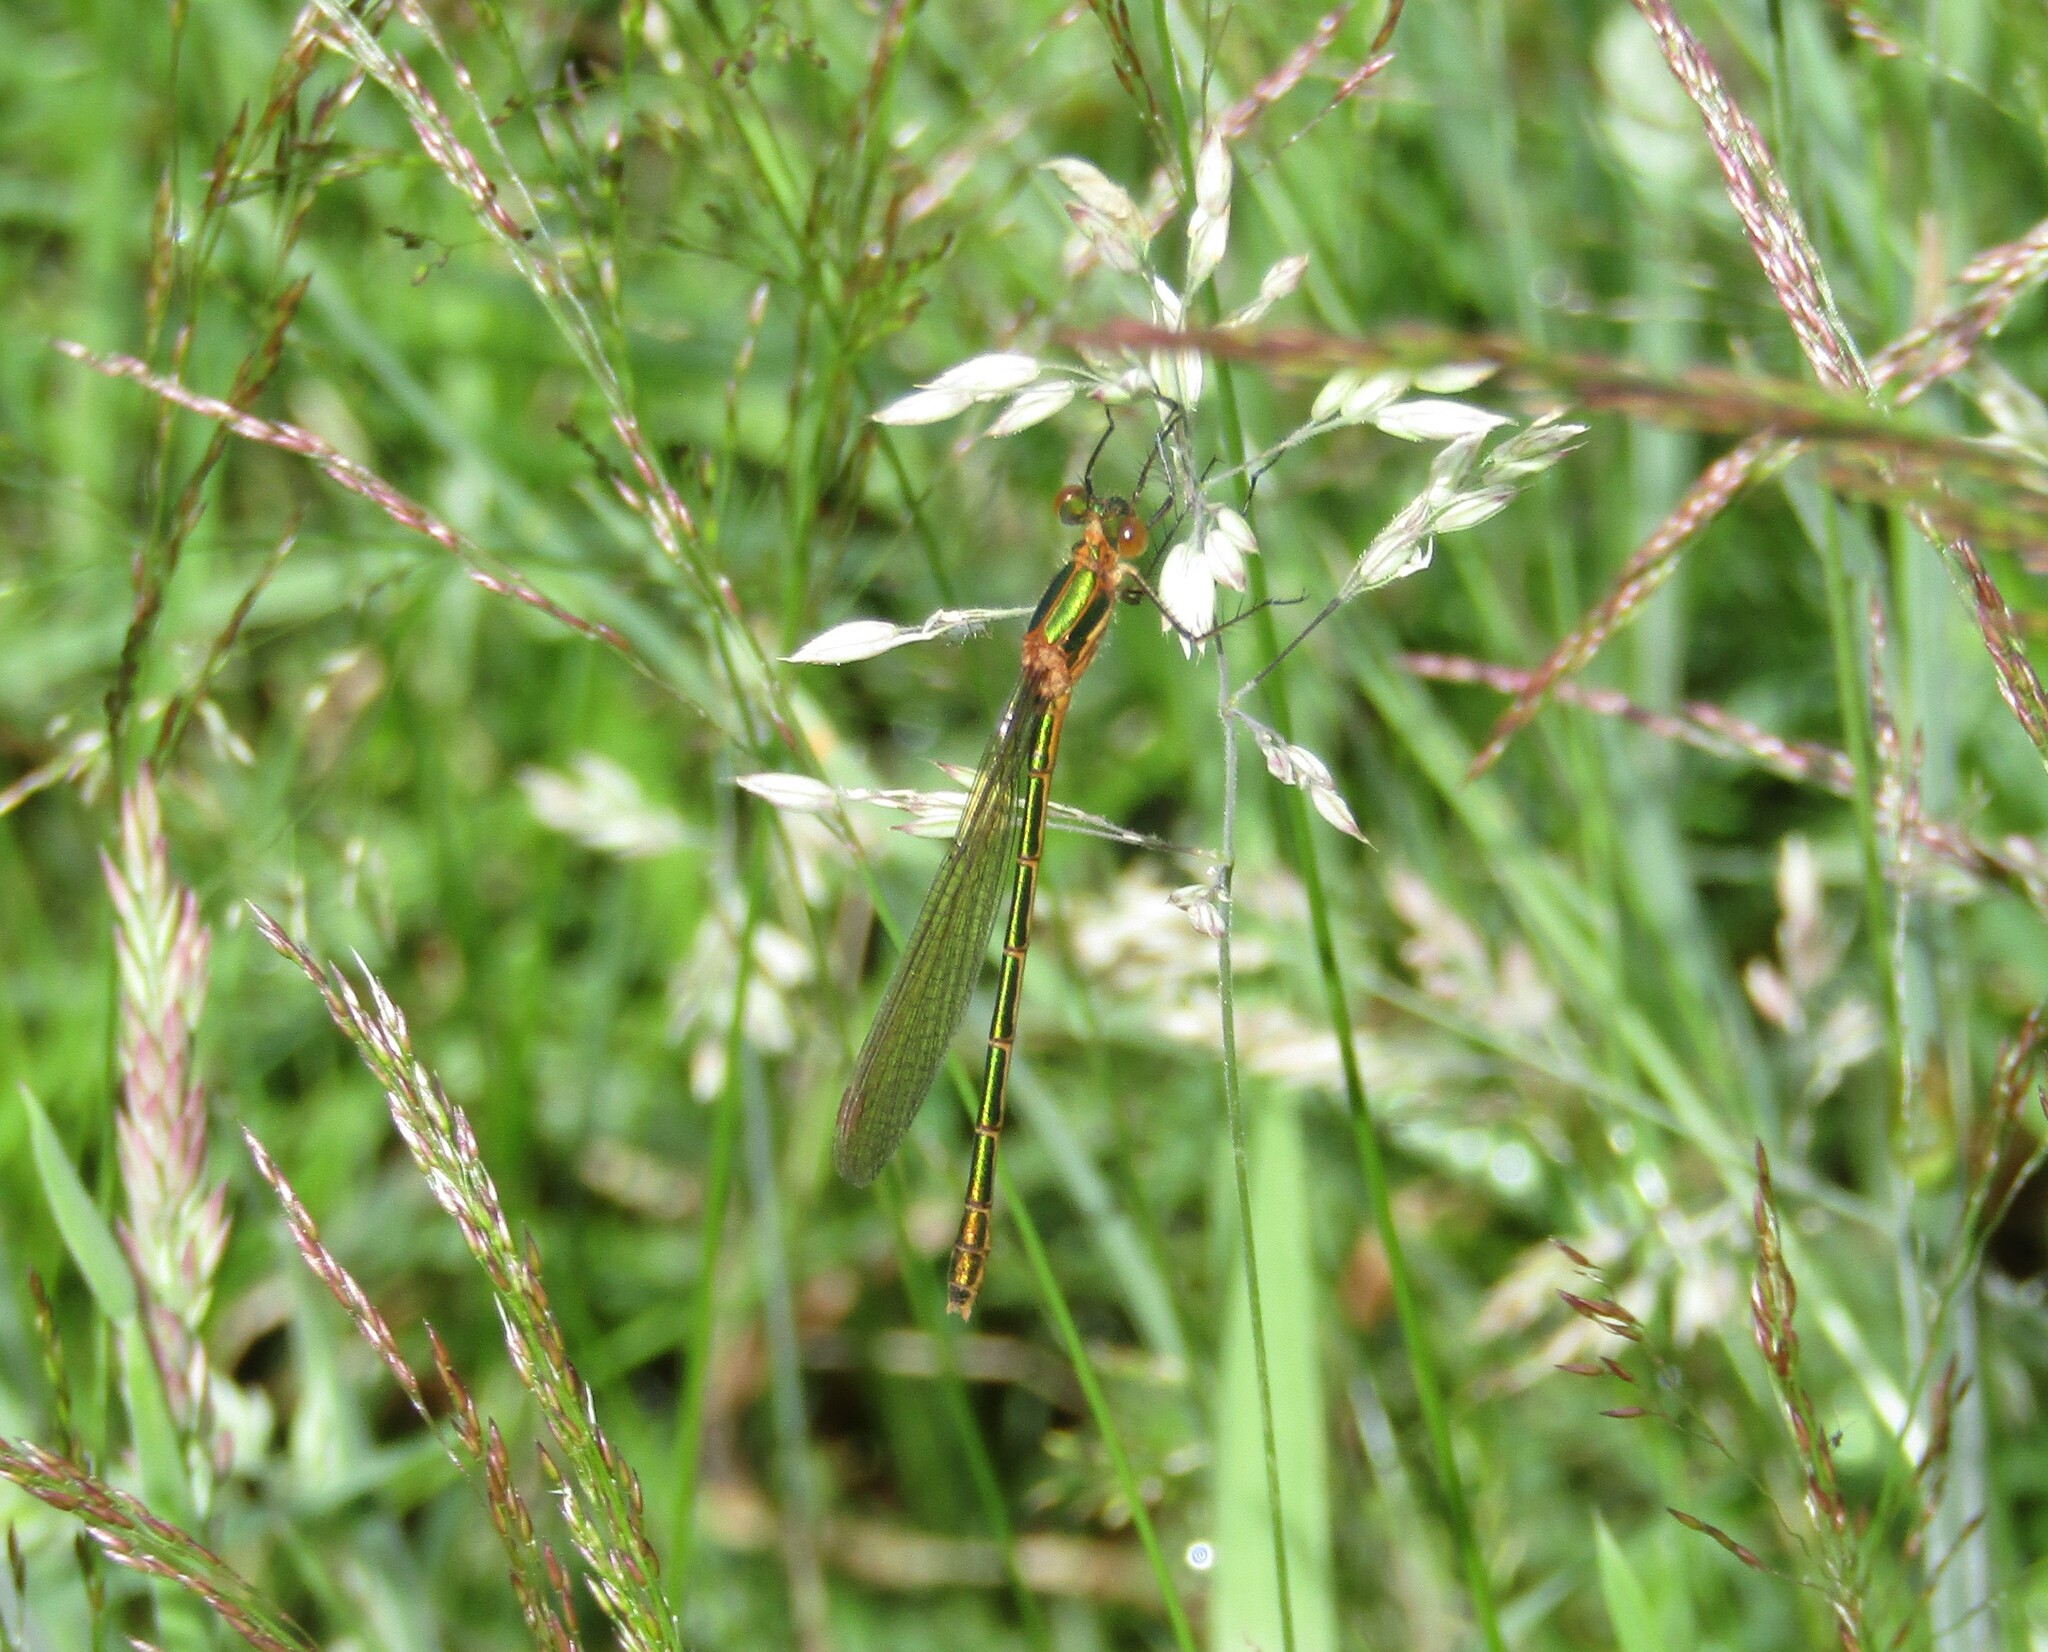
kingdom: Animalia
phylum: Arthropoda
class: Insecta
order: Odonata
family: Lestidae
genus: Lestes
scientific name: Lestes sponsa
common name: Common spreadwing
